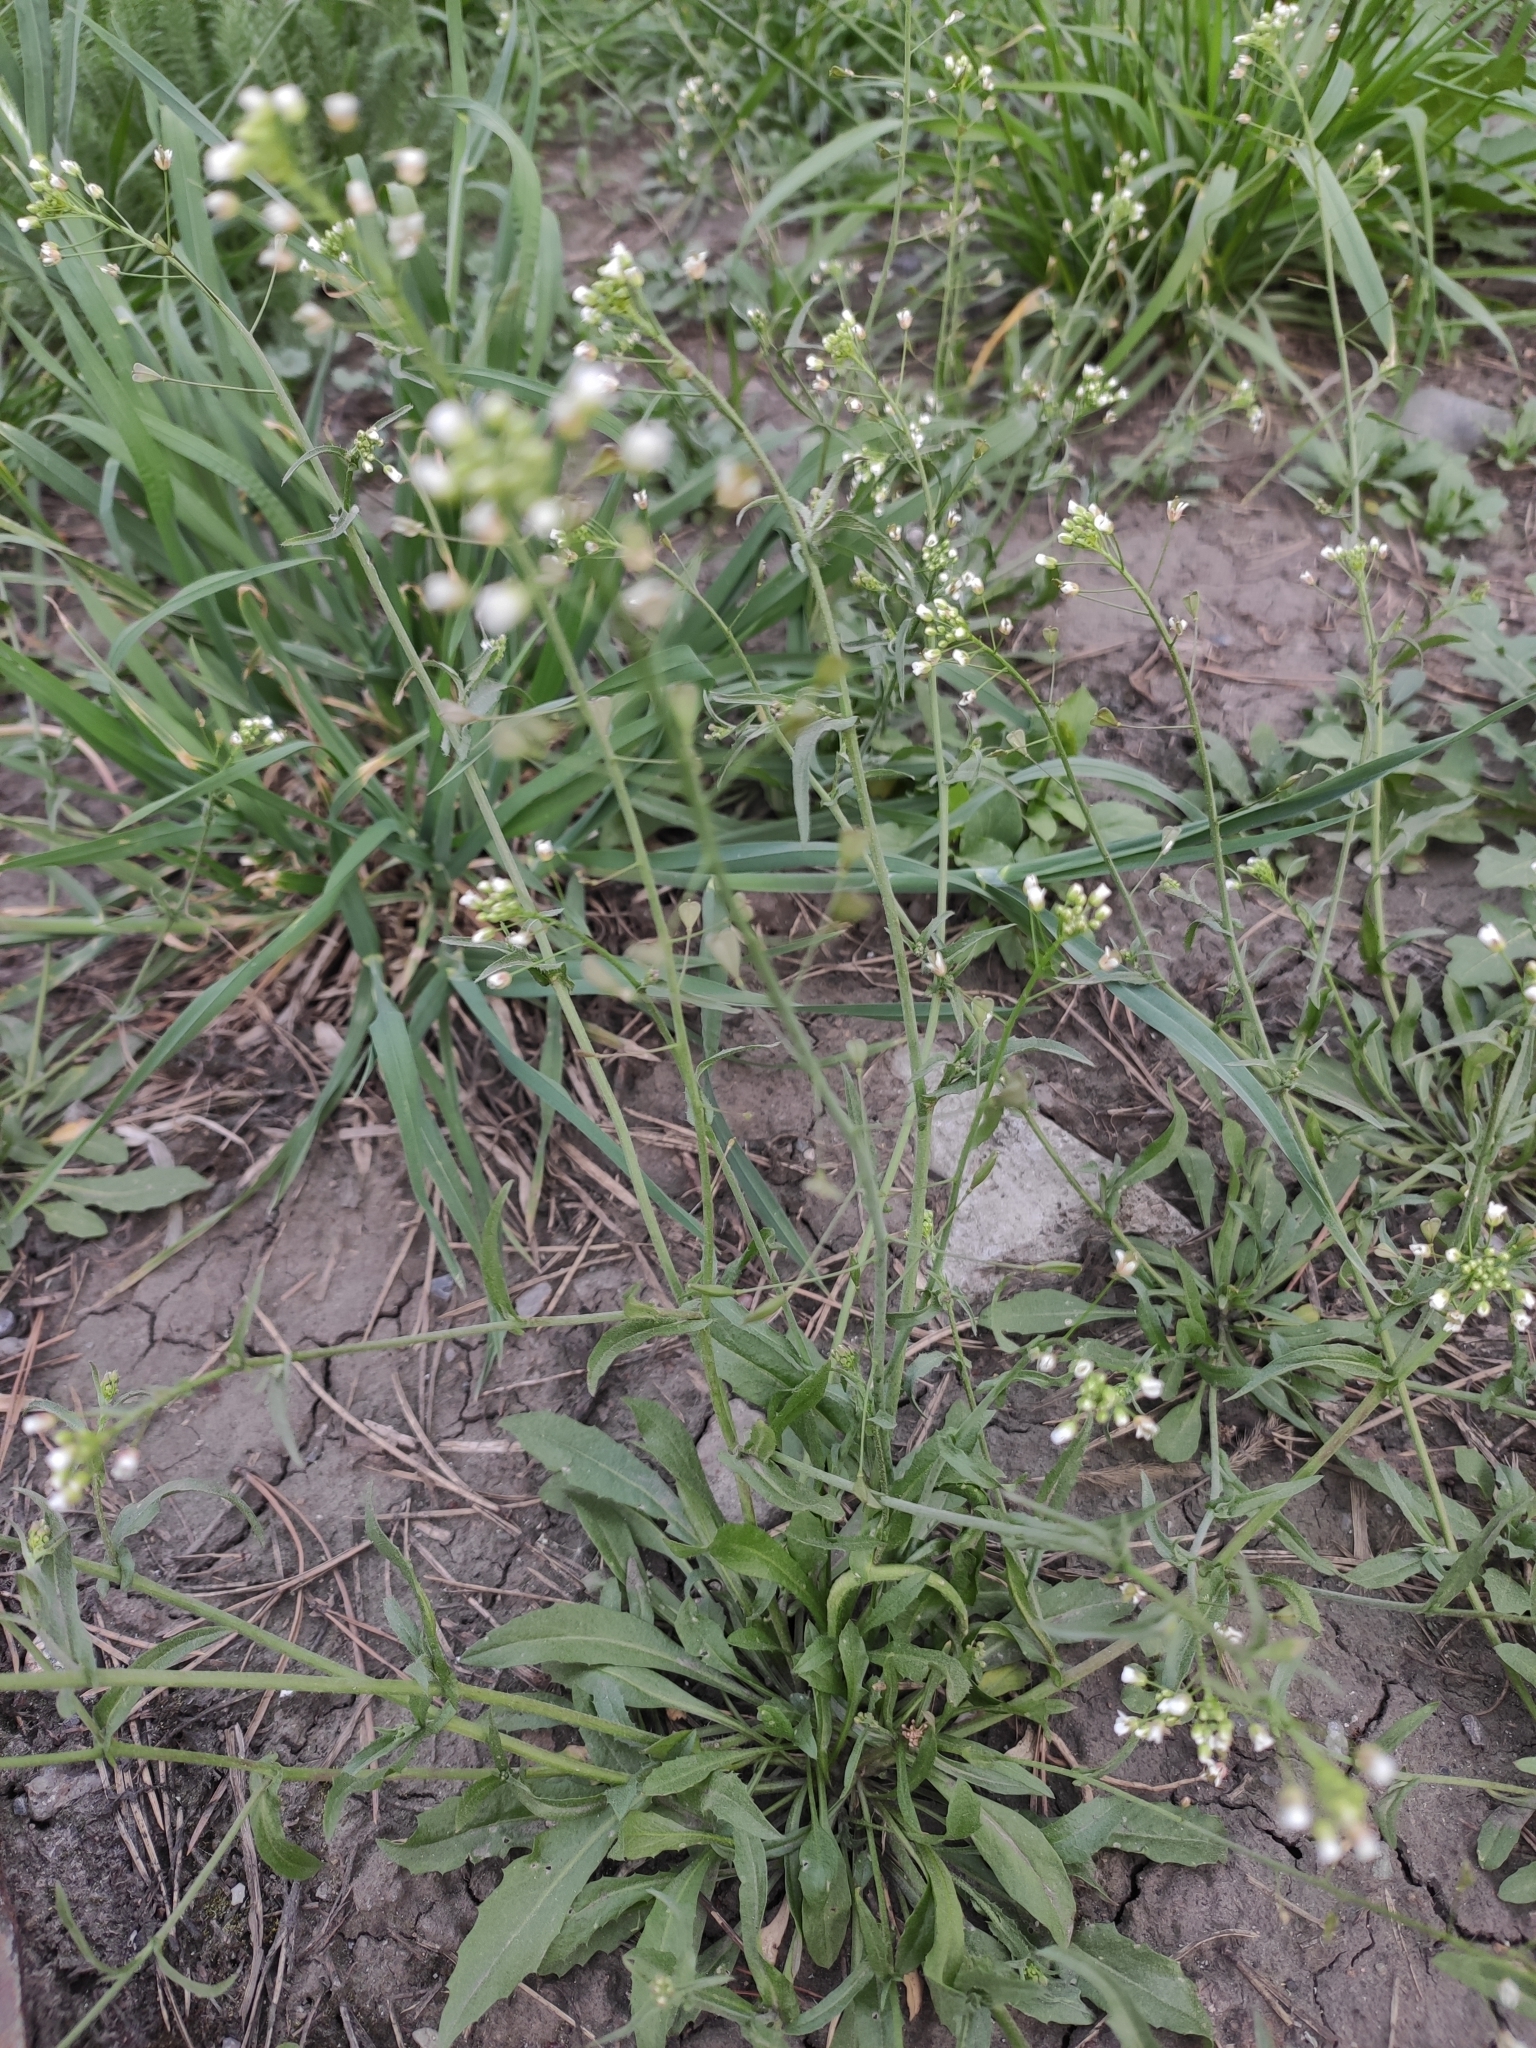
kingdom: Plantae
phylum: Tracheophyta
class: Magnoliopsida
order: Brassicales
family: Brassicaceae
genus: Capsella
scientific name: Capsella bursa-pastoris
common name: Shepherd's purse
